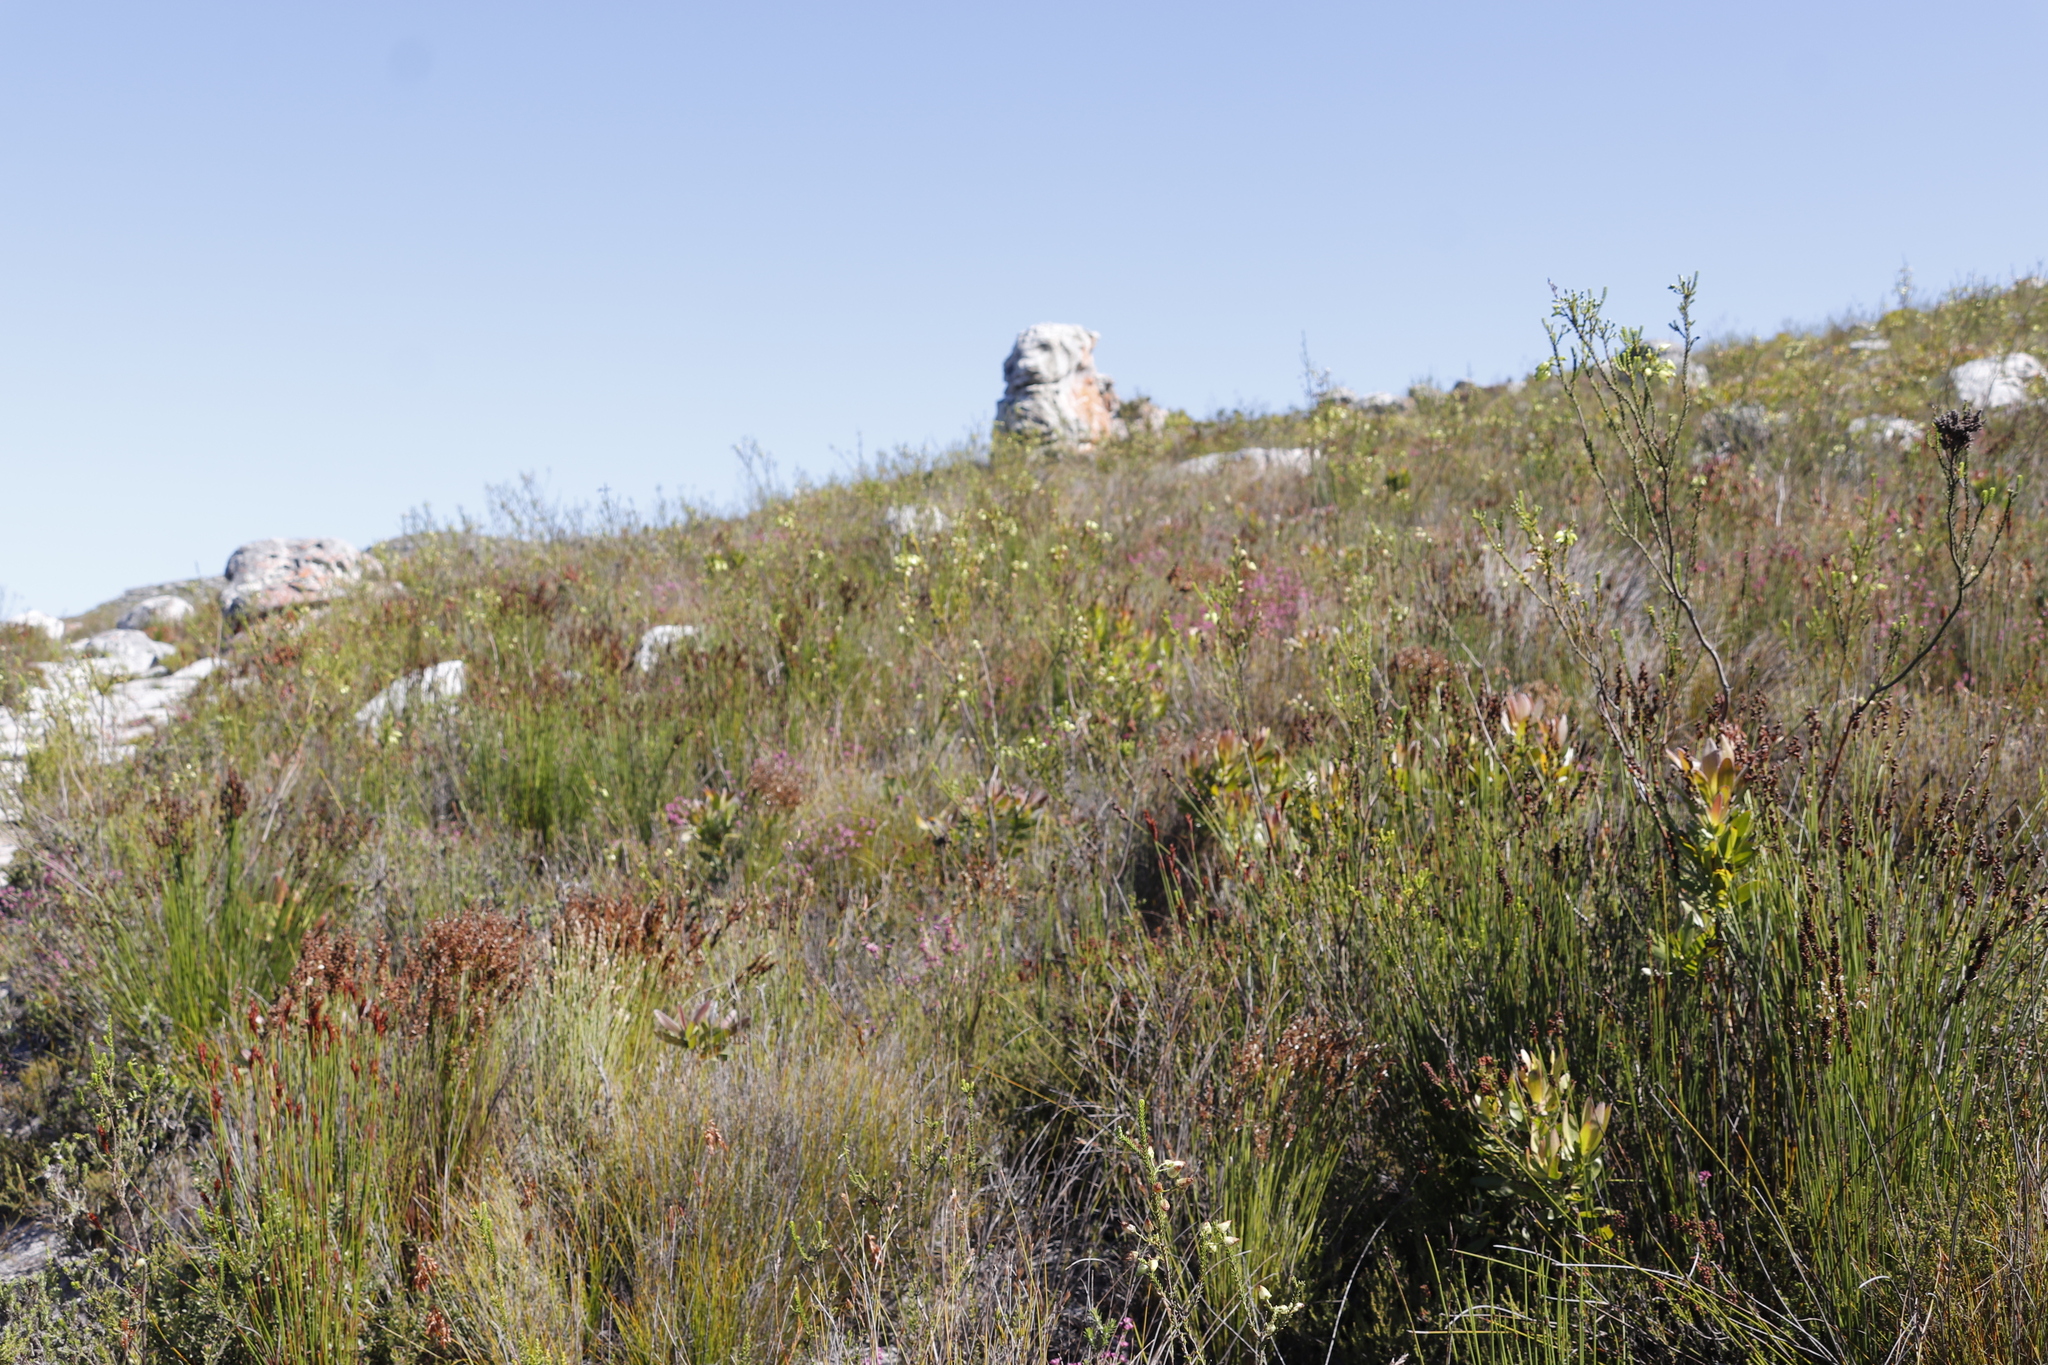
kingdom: Plantae
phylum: Tracheophyta
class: Magnoliopsida
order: Ericales
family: Ericaceae
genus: Erica
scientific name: Erica urna-viridis
